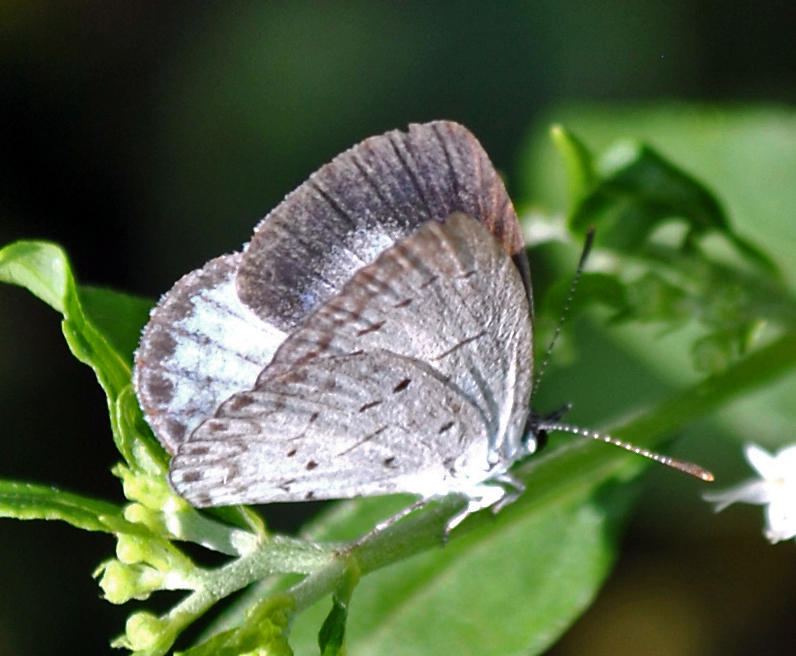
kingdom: Animalia
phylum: Arthropoda
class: Insecta
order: Lepidoptera
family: Lycaenidae
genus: Cyaniris
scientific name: Cyaniris neglecta
